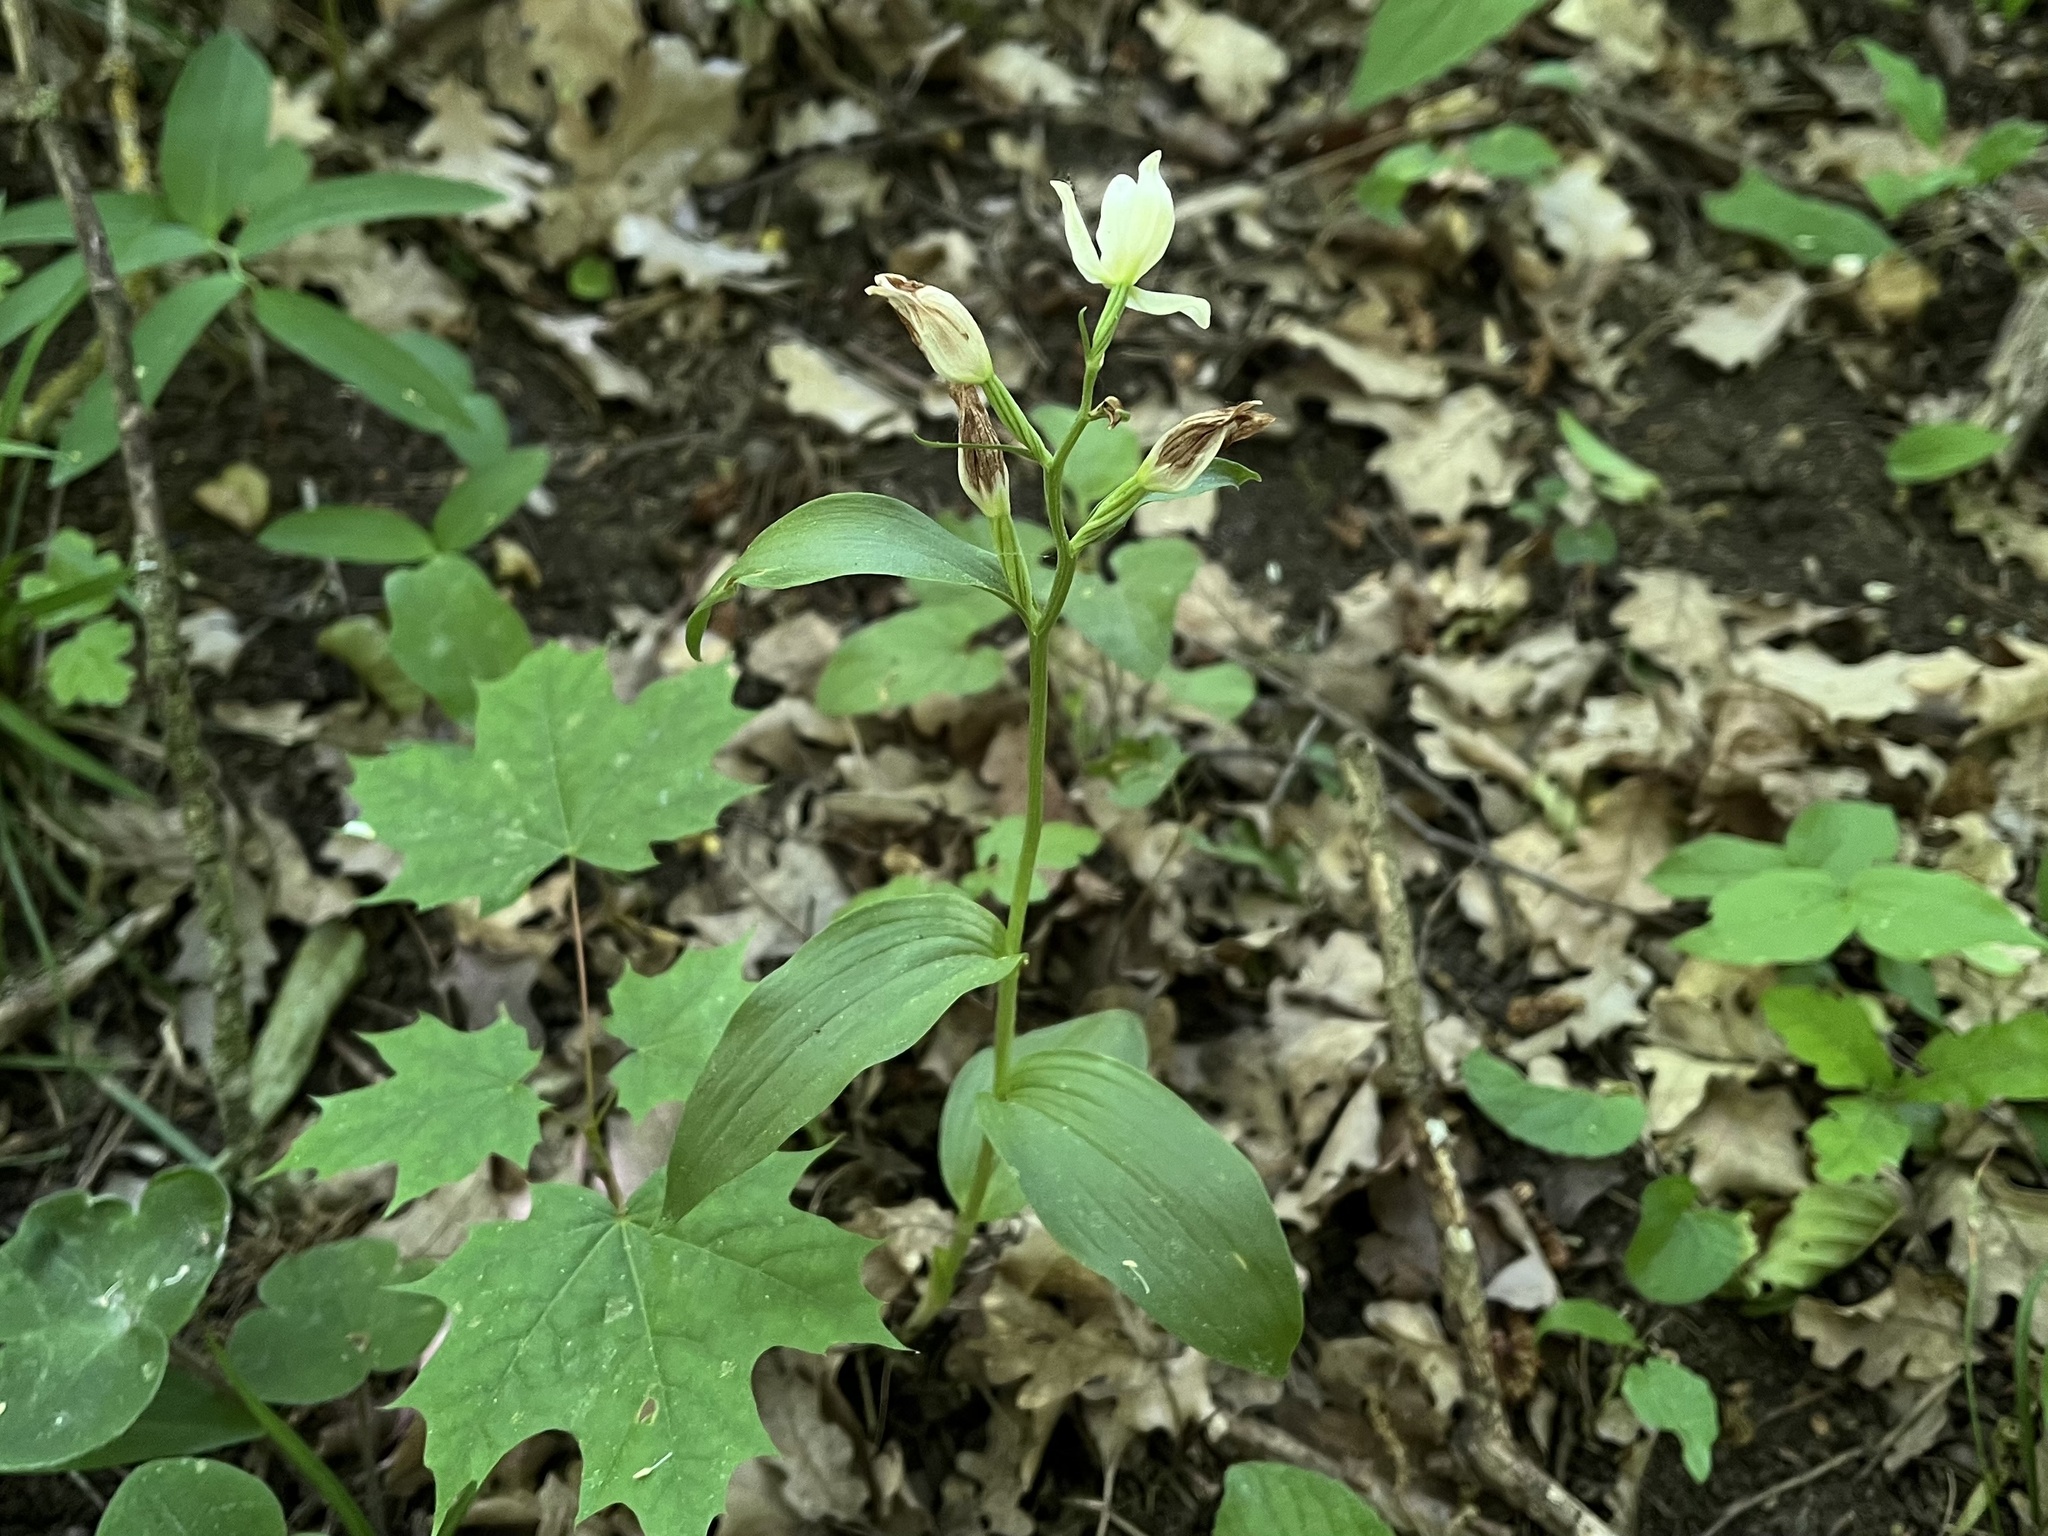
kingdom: Plantae
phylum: Tracheophyta
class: Liliopsida
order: Asparagales
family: Orchidaceae
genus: Cephalanthera
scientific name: Cephalanthera damasonium
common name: White helleborine
